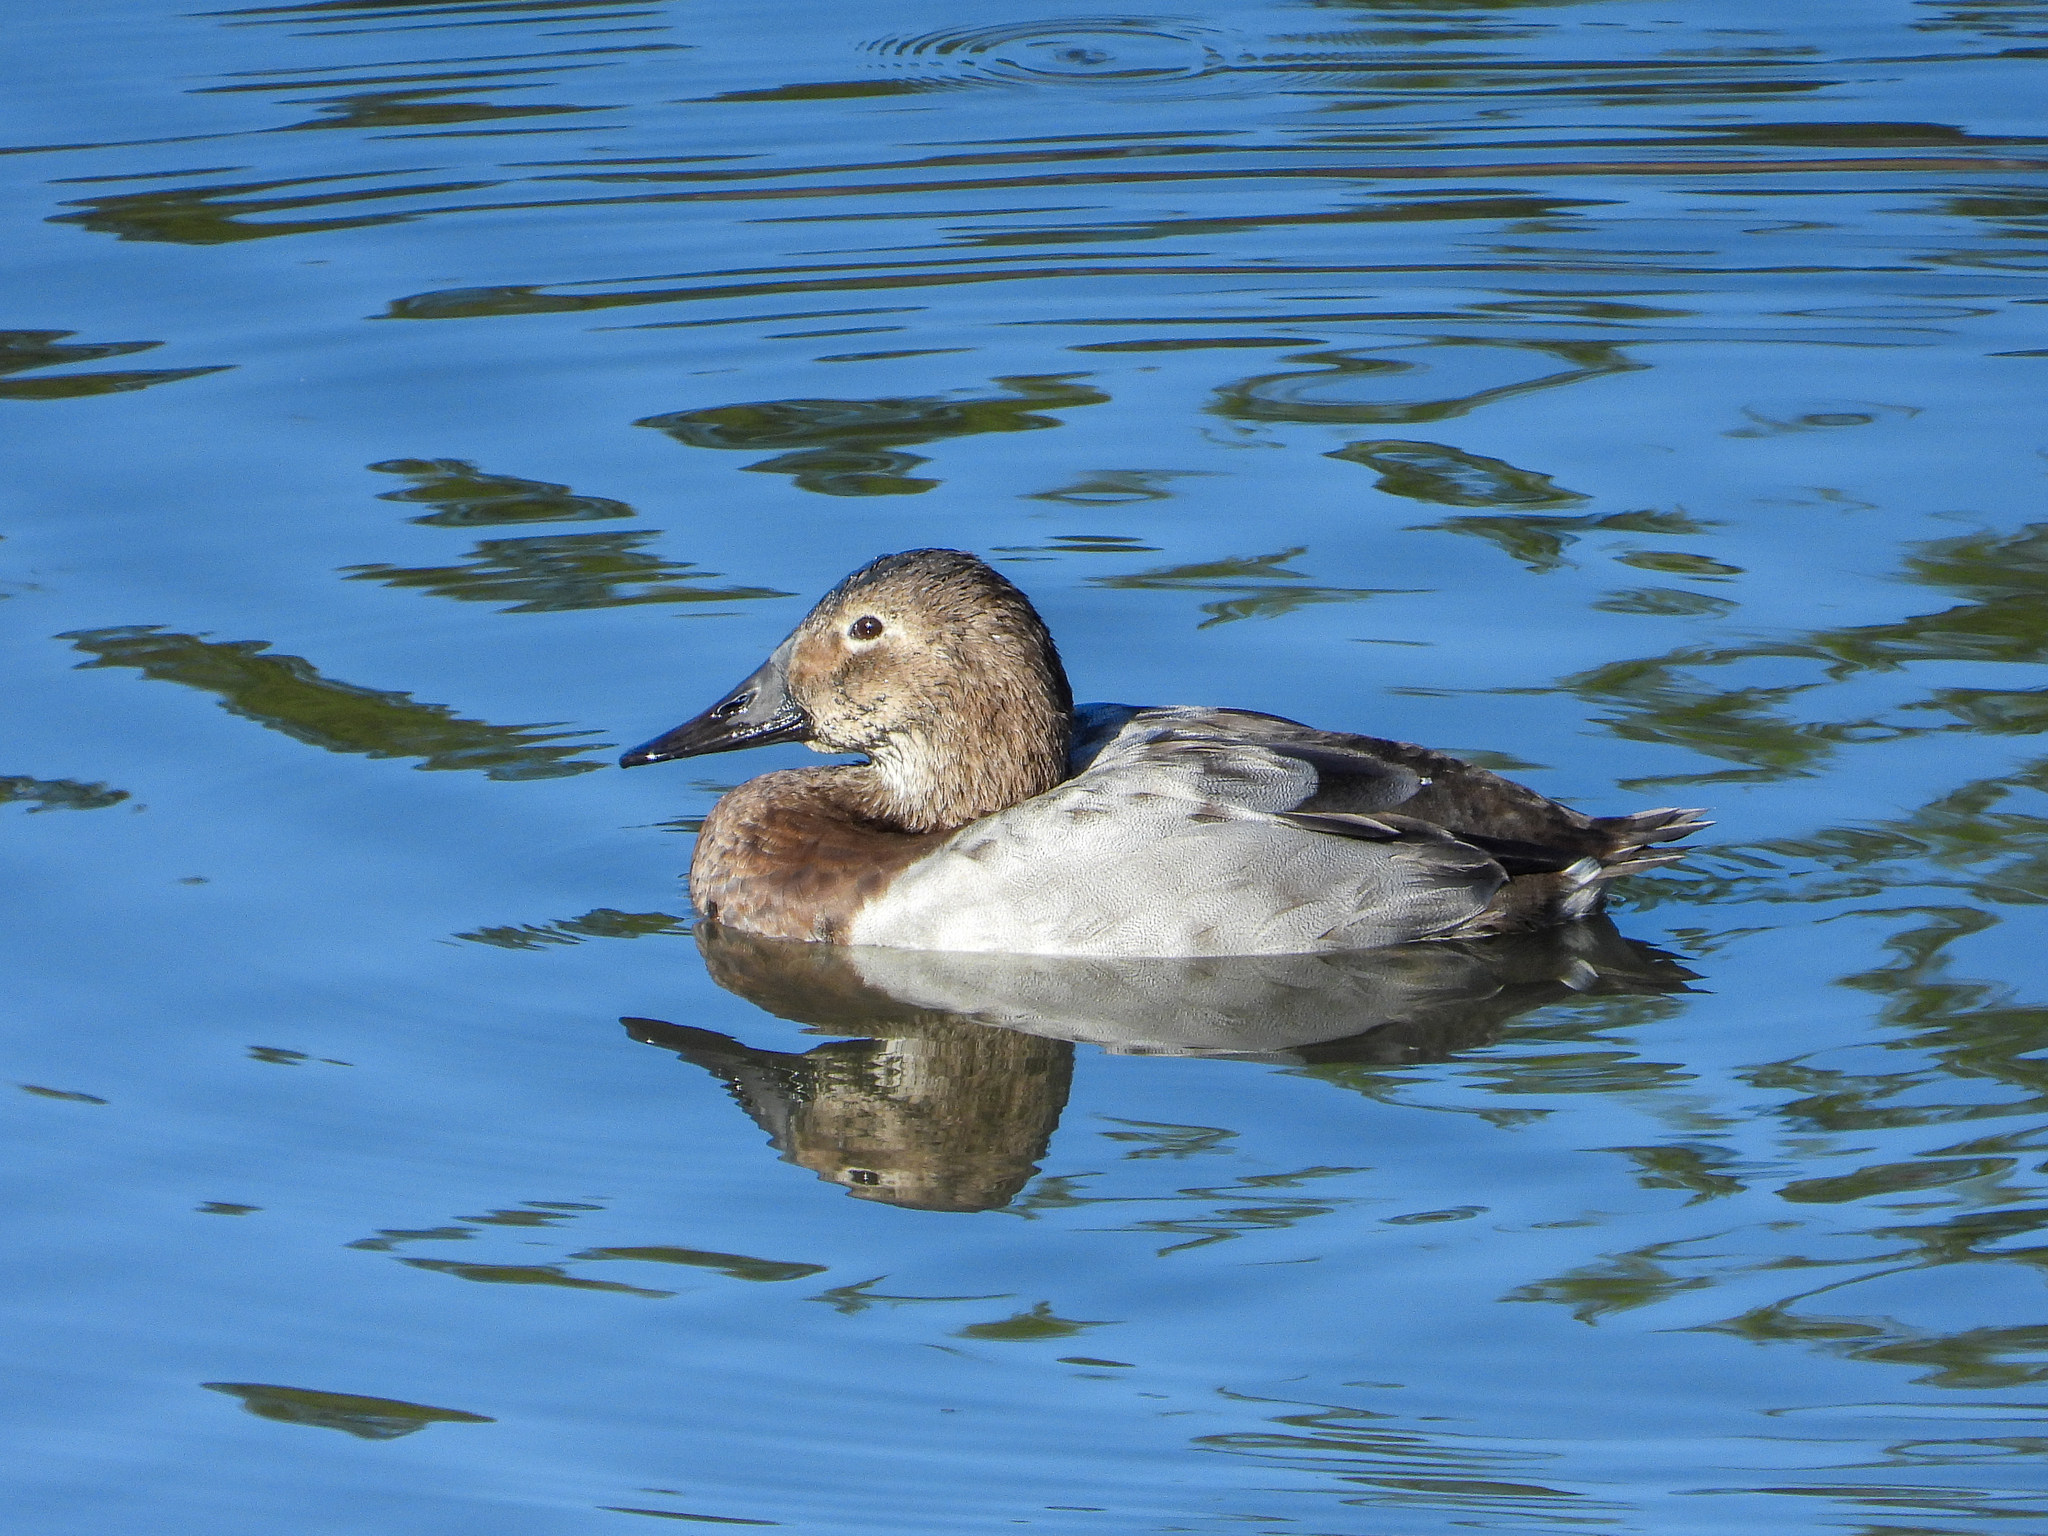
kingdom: Animalia
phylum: Chordata
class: Aves
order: Anseriformes
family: Anatidae
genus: Aythya
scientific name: Aythya valisineria
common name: Canvasback
